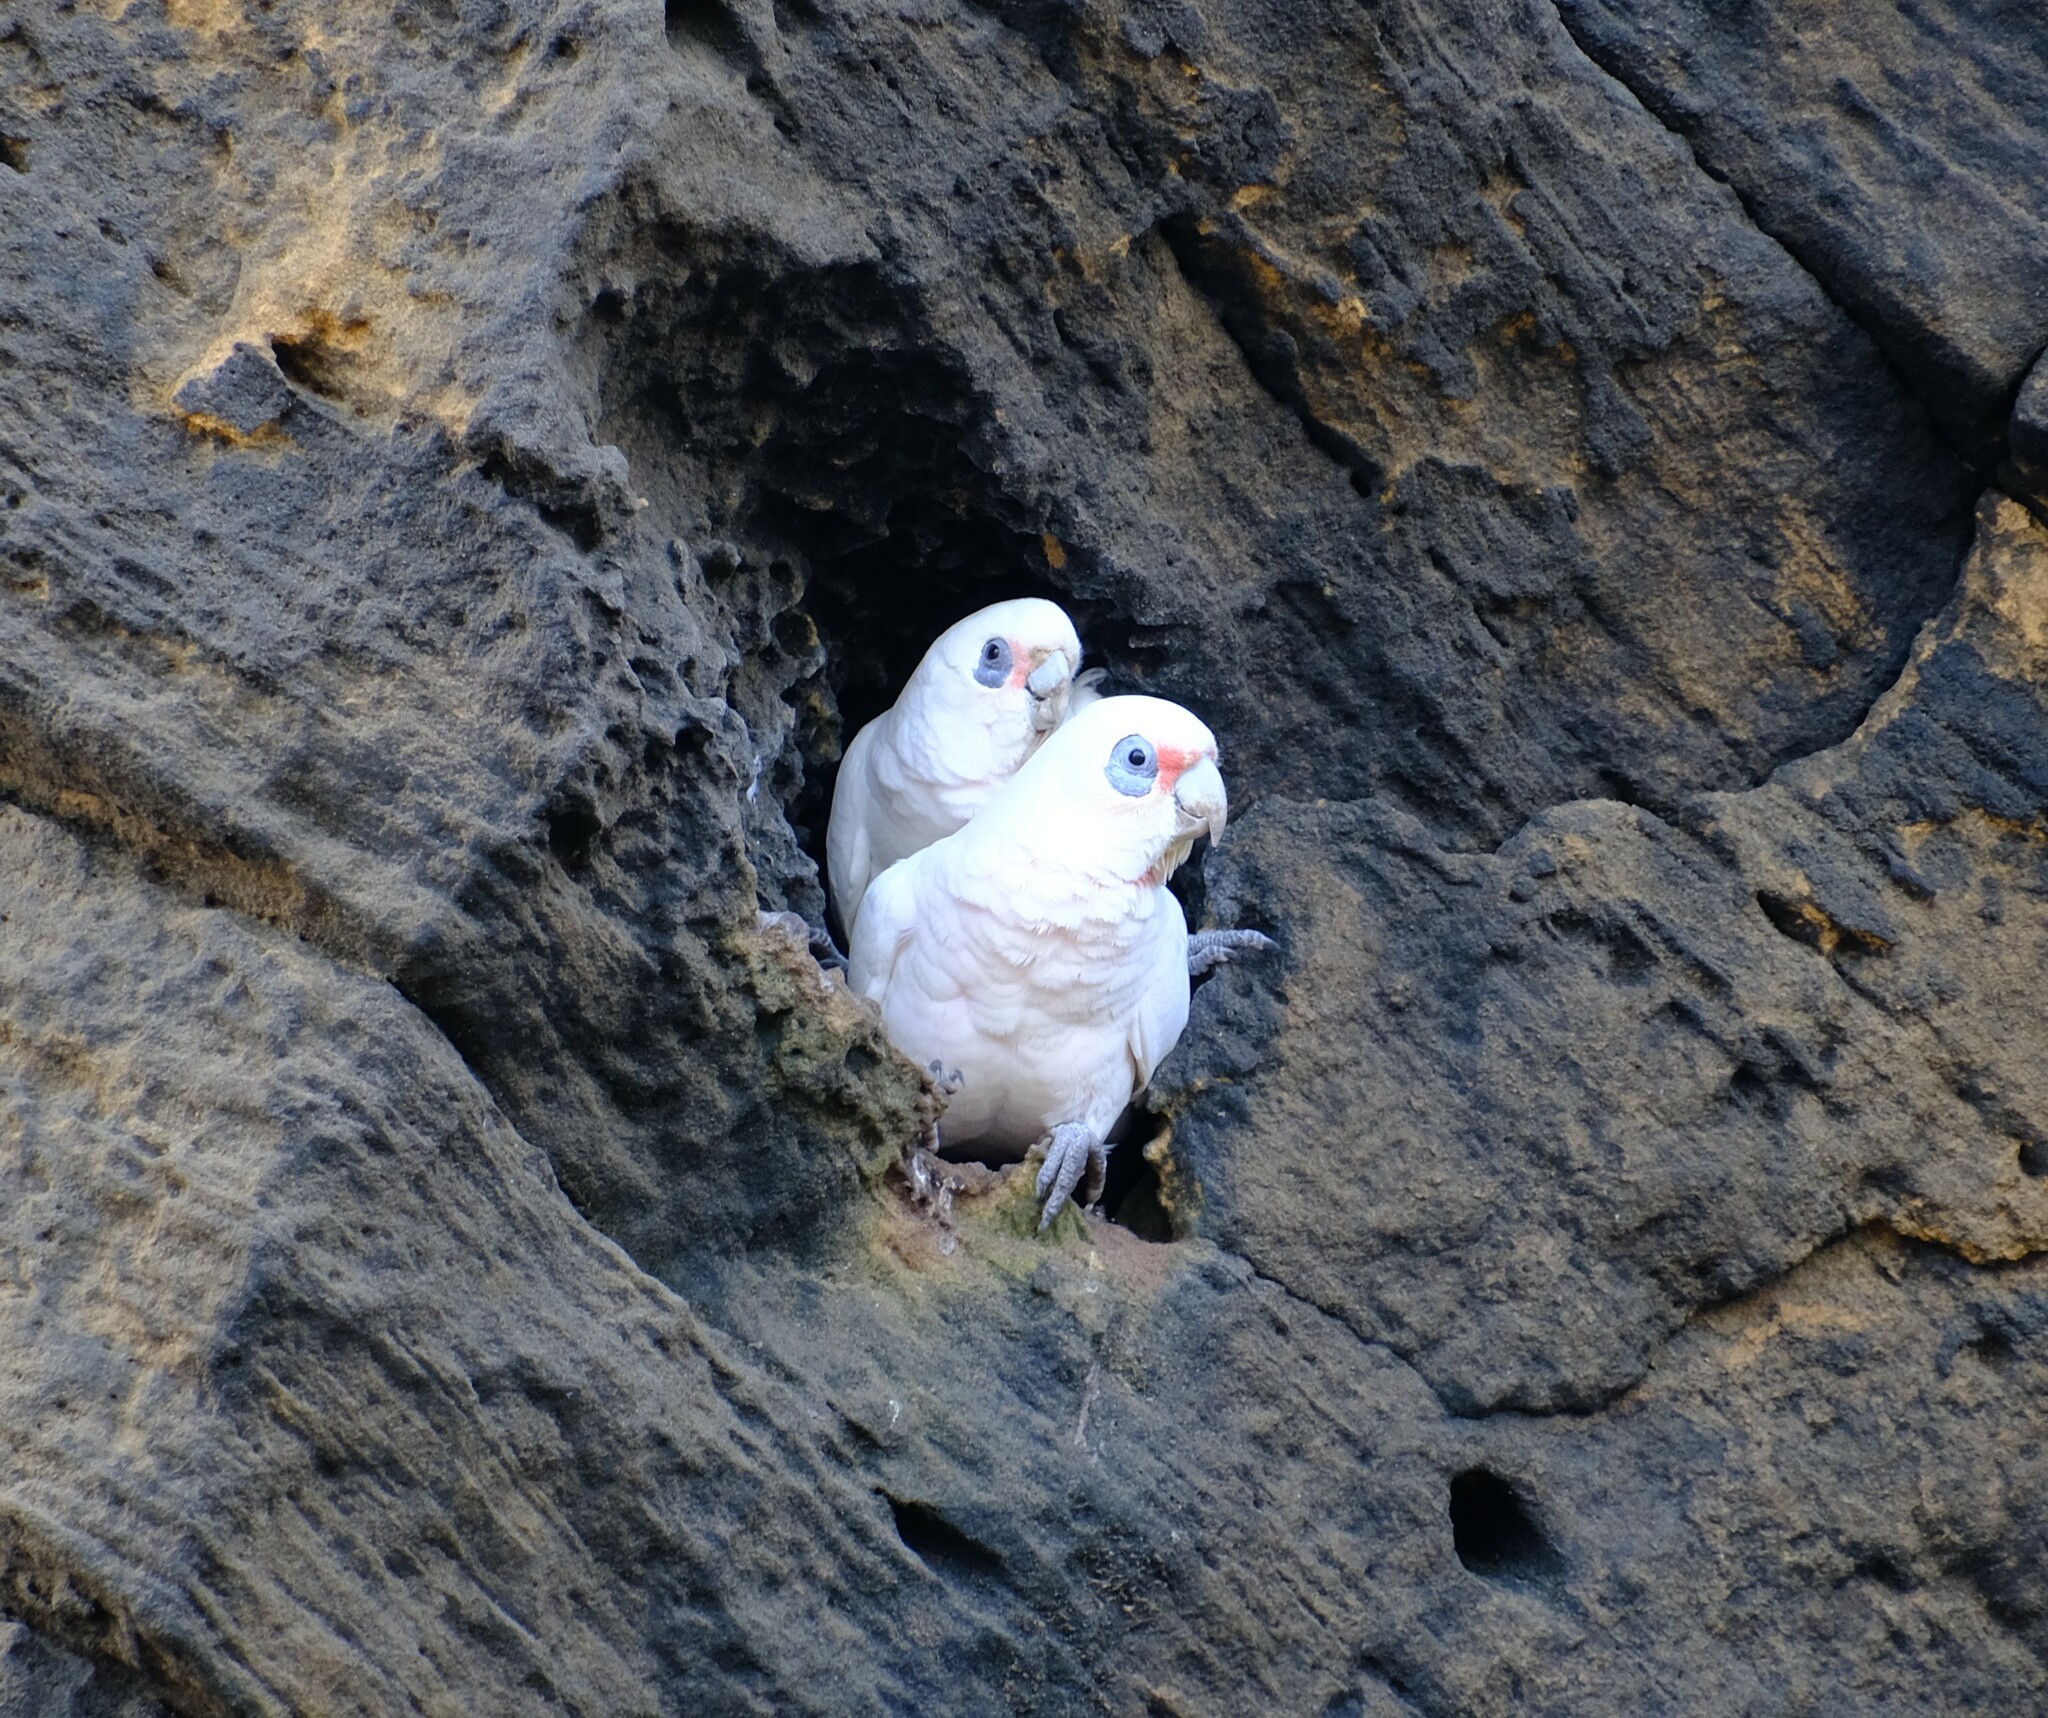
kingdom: Animalia
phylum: Chordata
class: Aves
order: Psittaciformes
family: Psittacidae
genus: Cacatua
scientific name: Cacatua sanguinea
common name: Little corella
